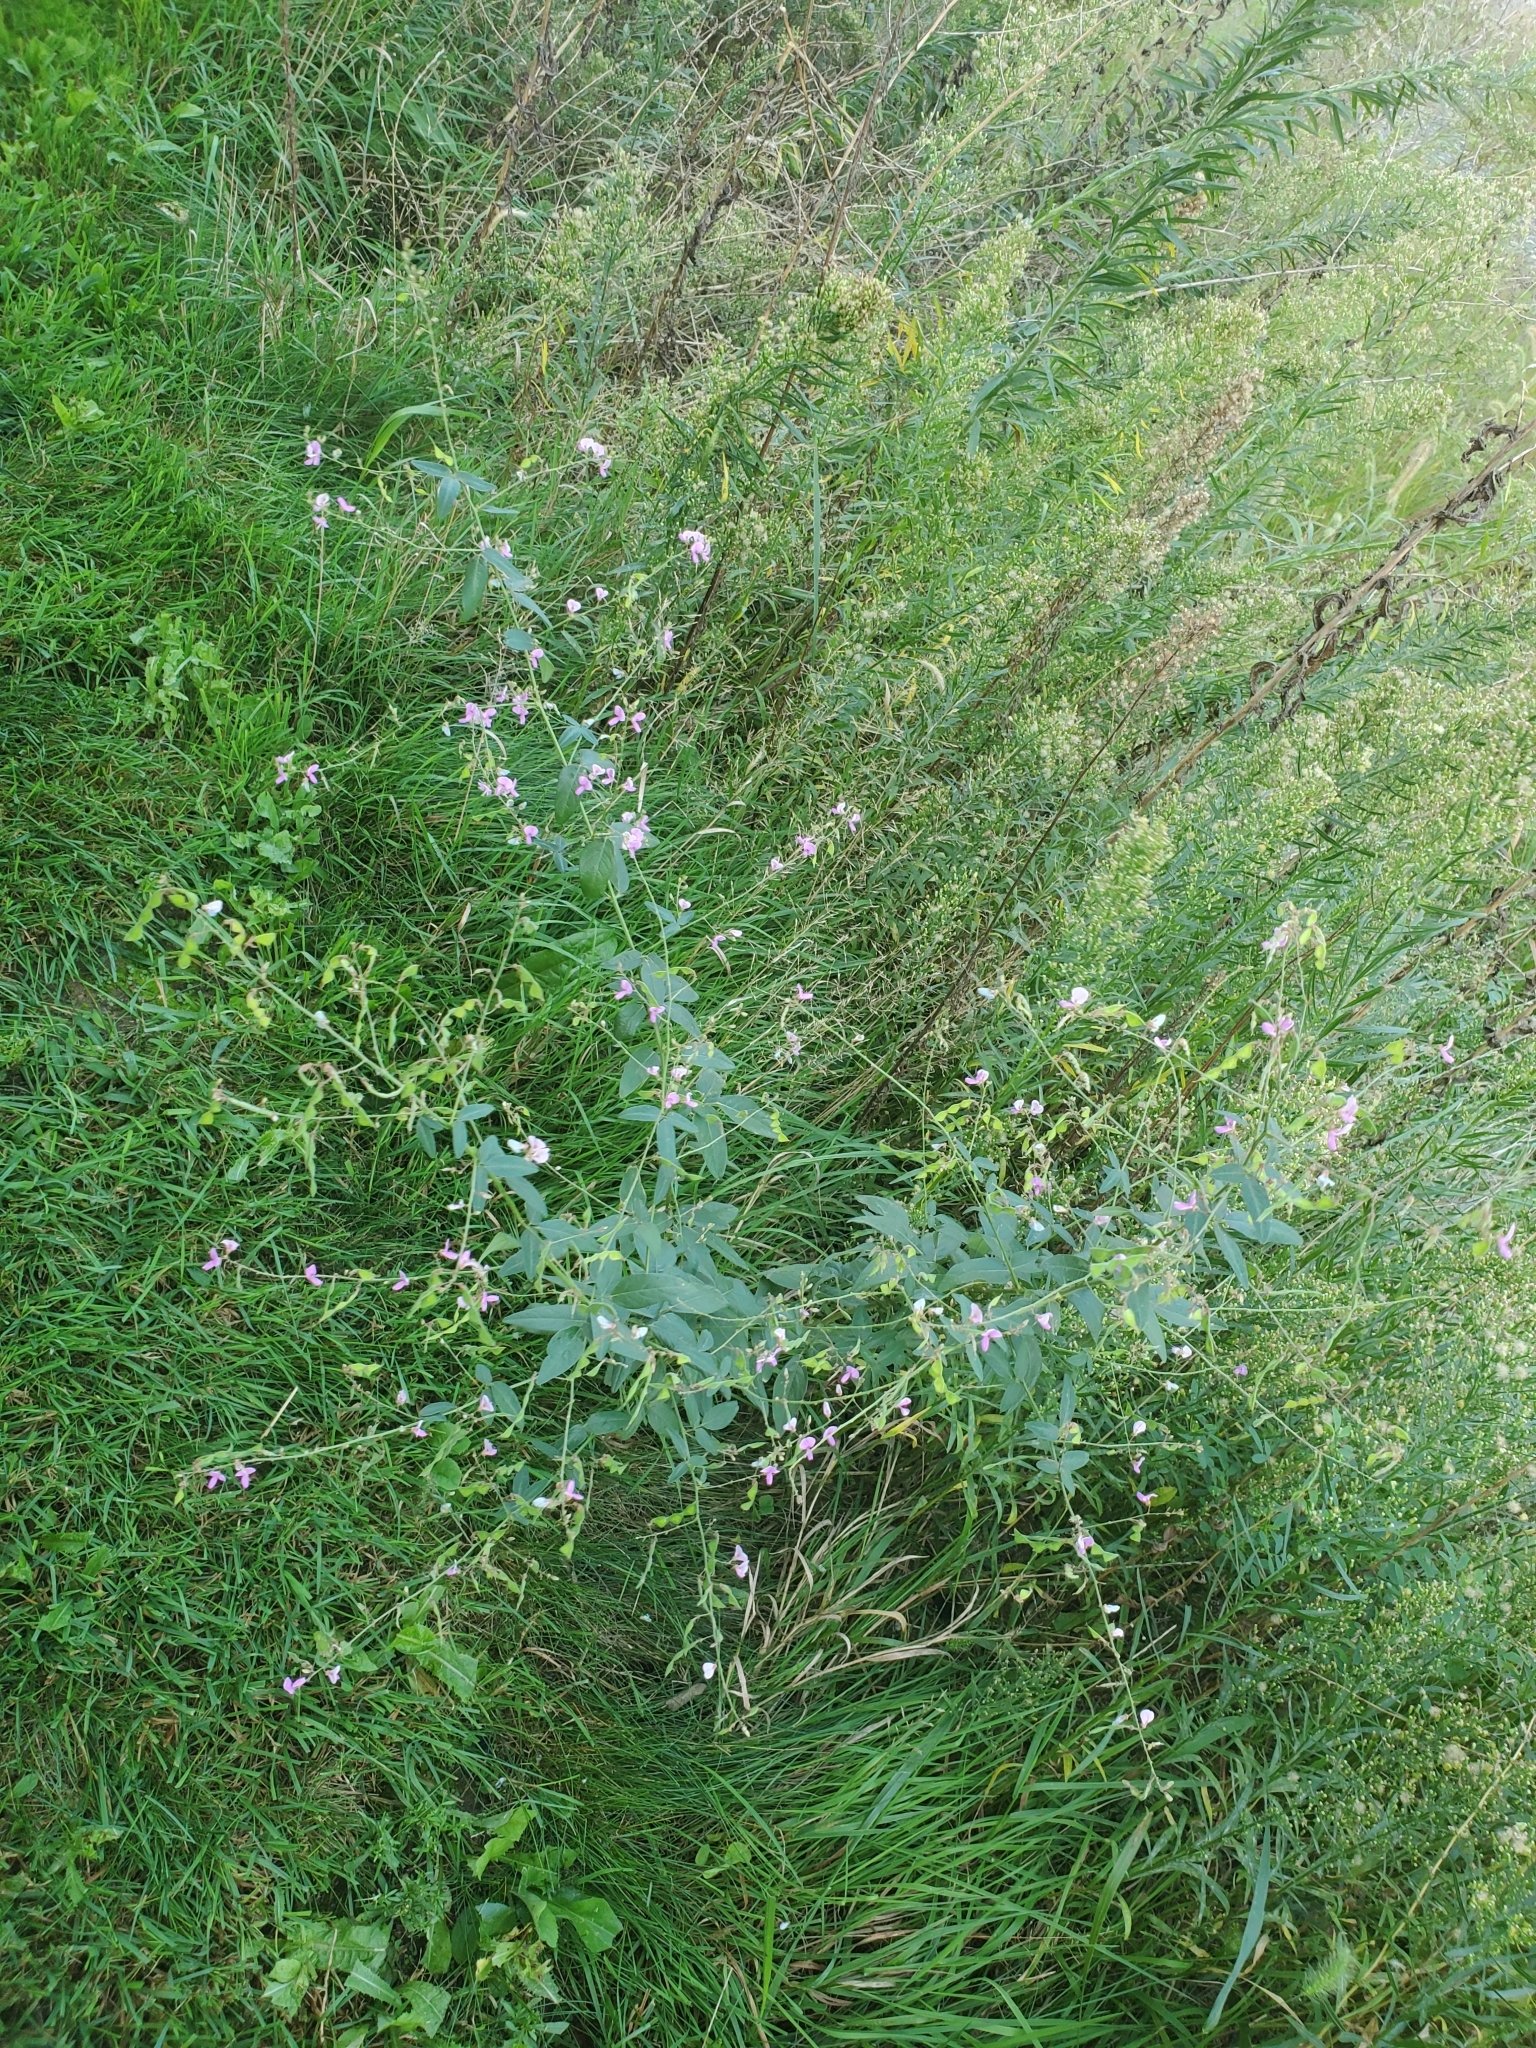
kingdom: Plantae
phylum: Tracheophyta
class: Magnoliopsida
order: Fabales
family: Fabaceae
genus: Desmodium
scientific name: Desmodium glabellum
